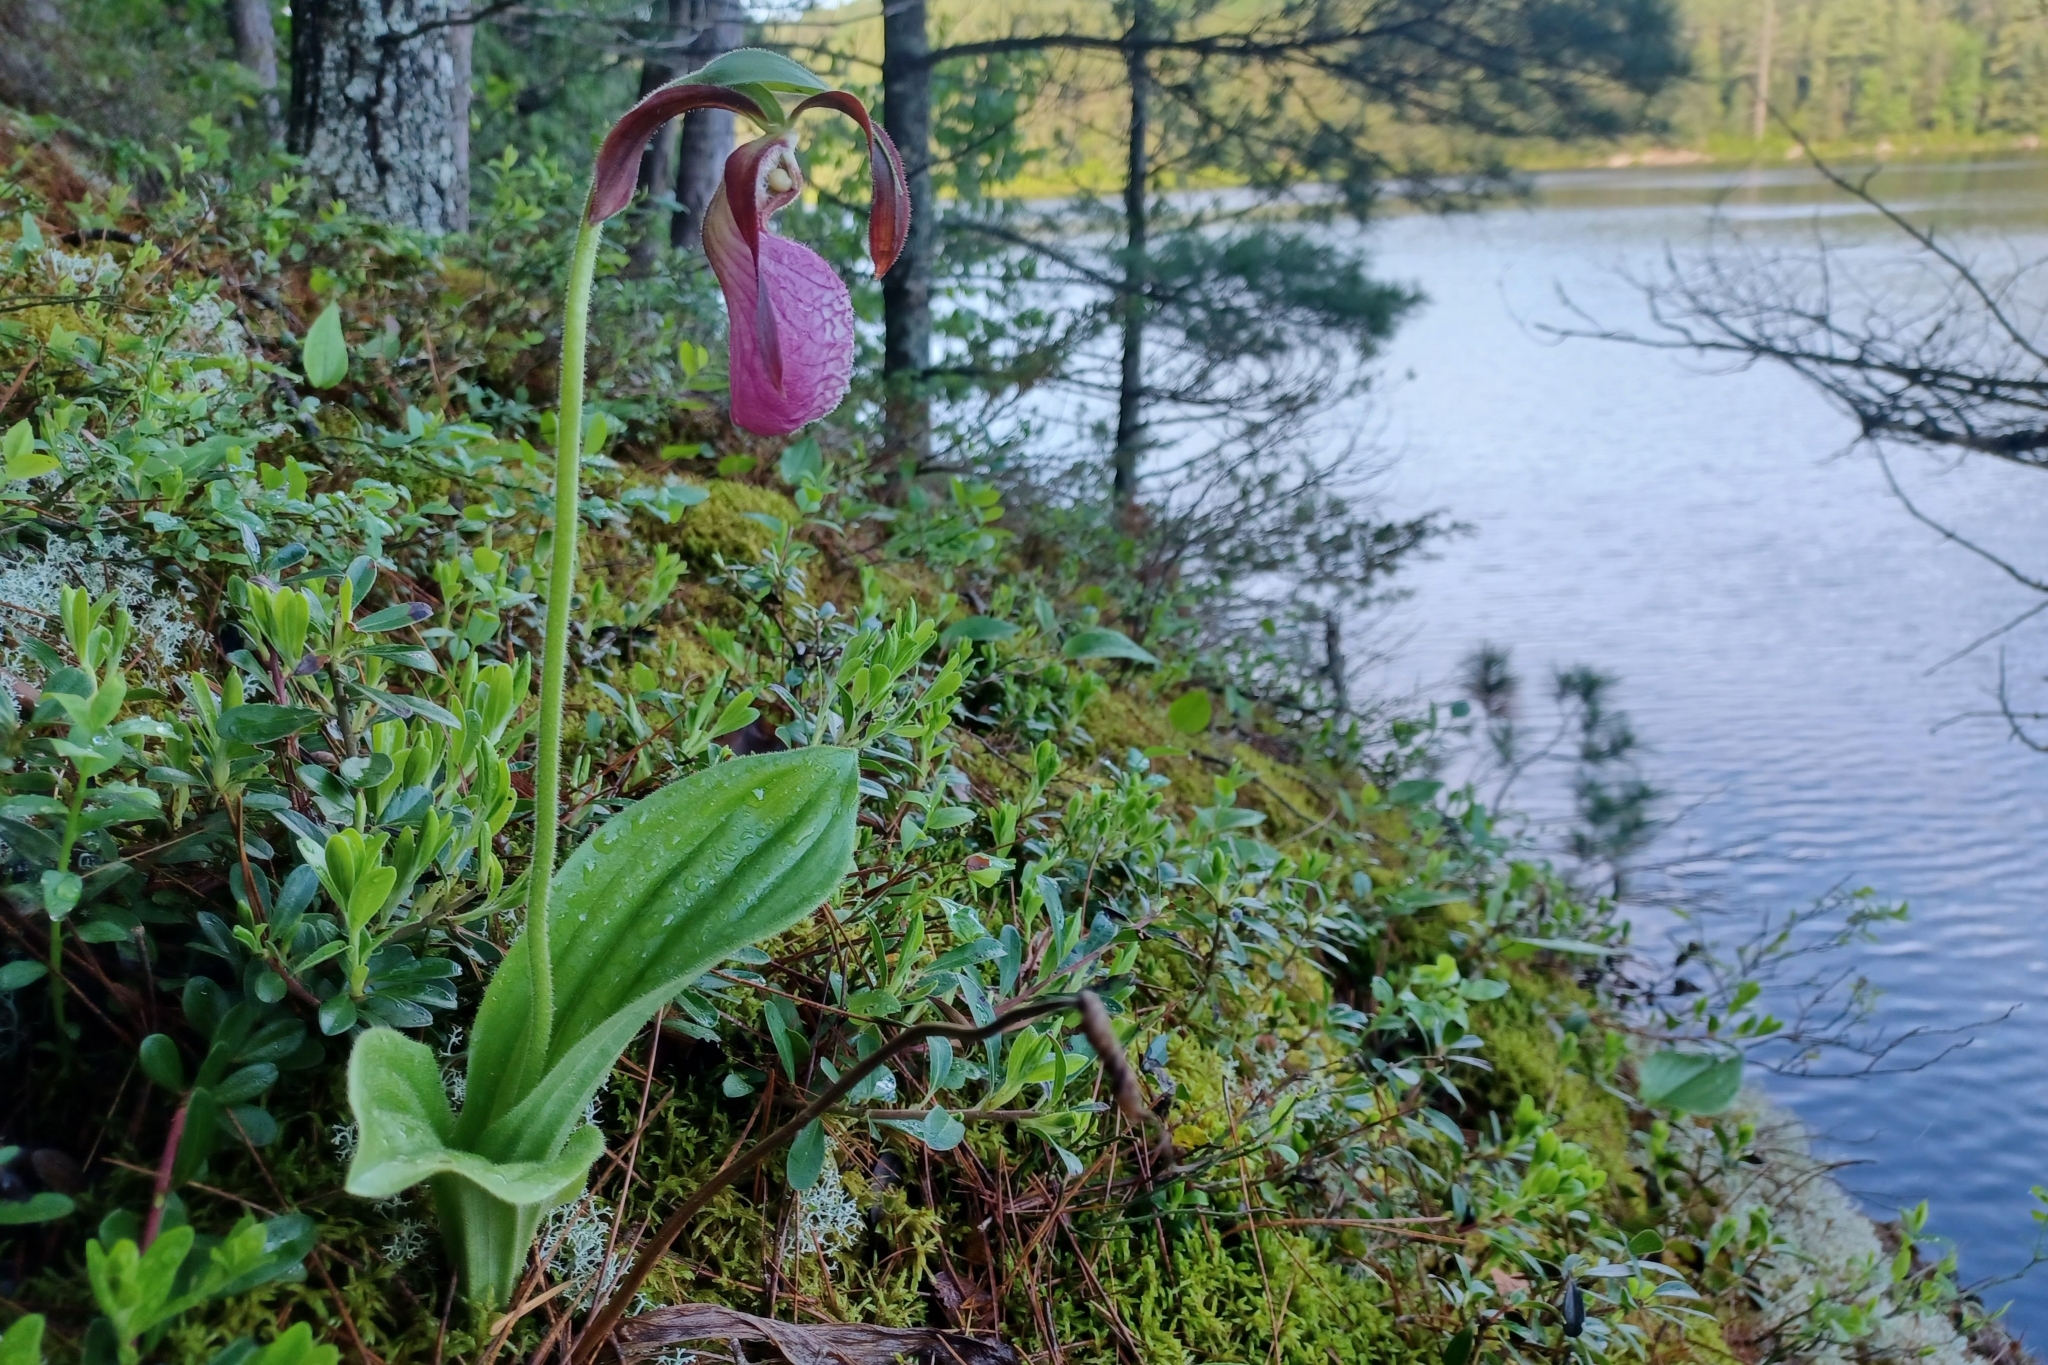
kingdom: Plantae
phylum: Tracheophyta
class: Liliopsida
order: Asparagales
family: Orchidaceae
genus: Cypripedium
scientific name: Cypripedium acaule
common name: Pink lady's-slipper
